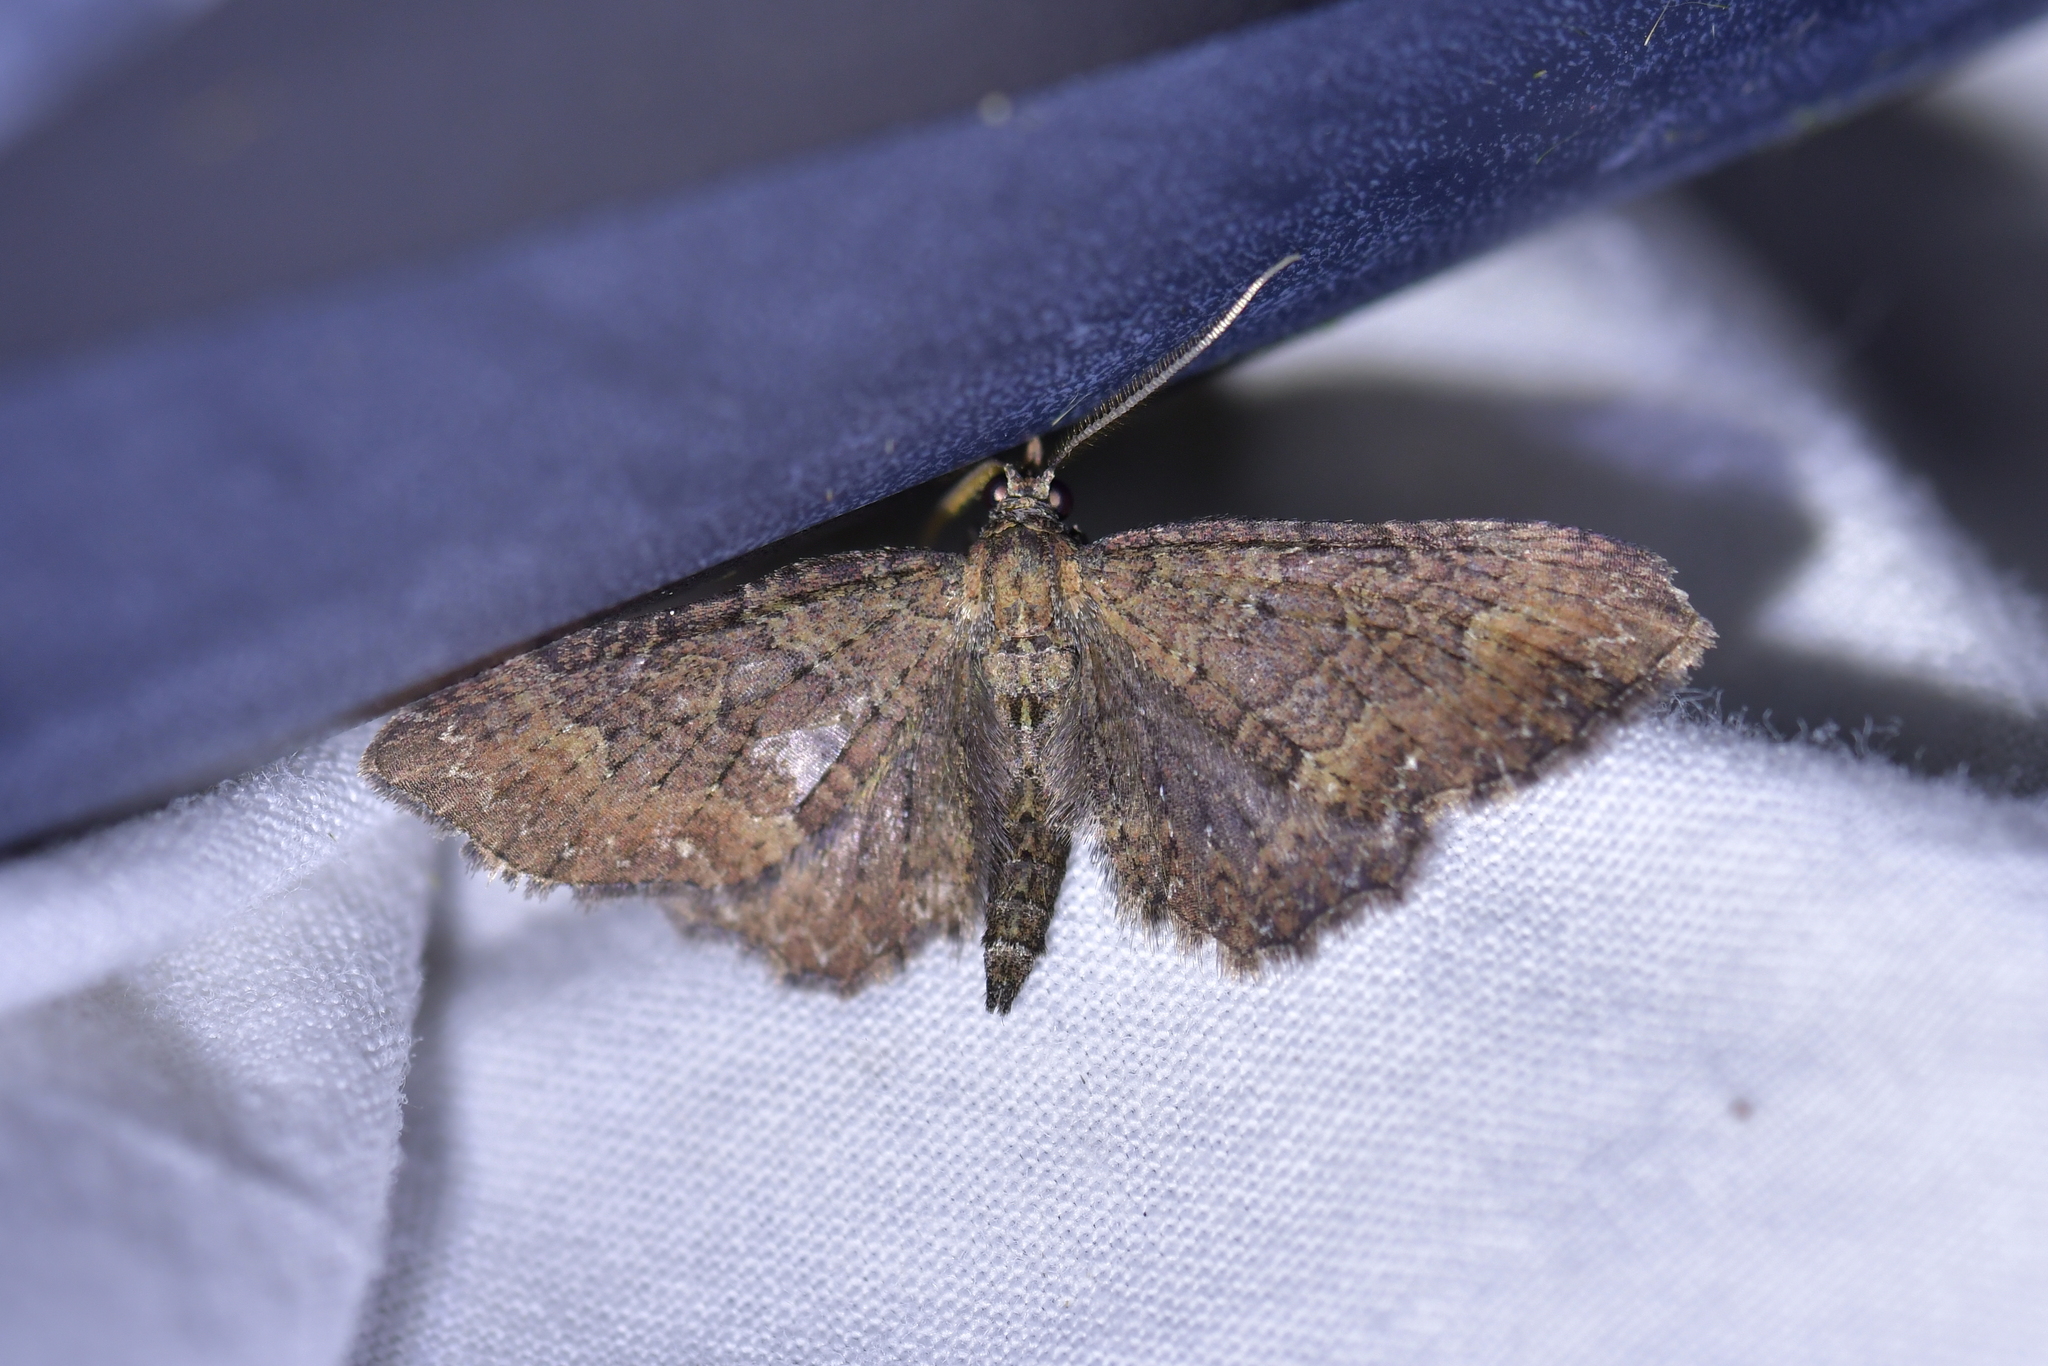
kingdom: Animalia
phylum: Arthropoda
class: Insecta
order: Lepidoptera
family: Geometridae
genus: Pasiphila
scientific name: Pasiphila dryas
